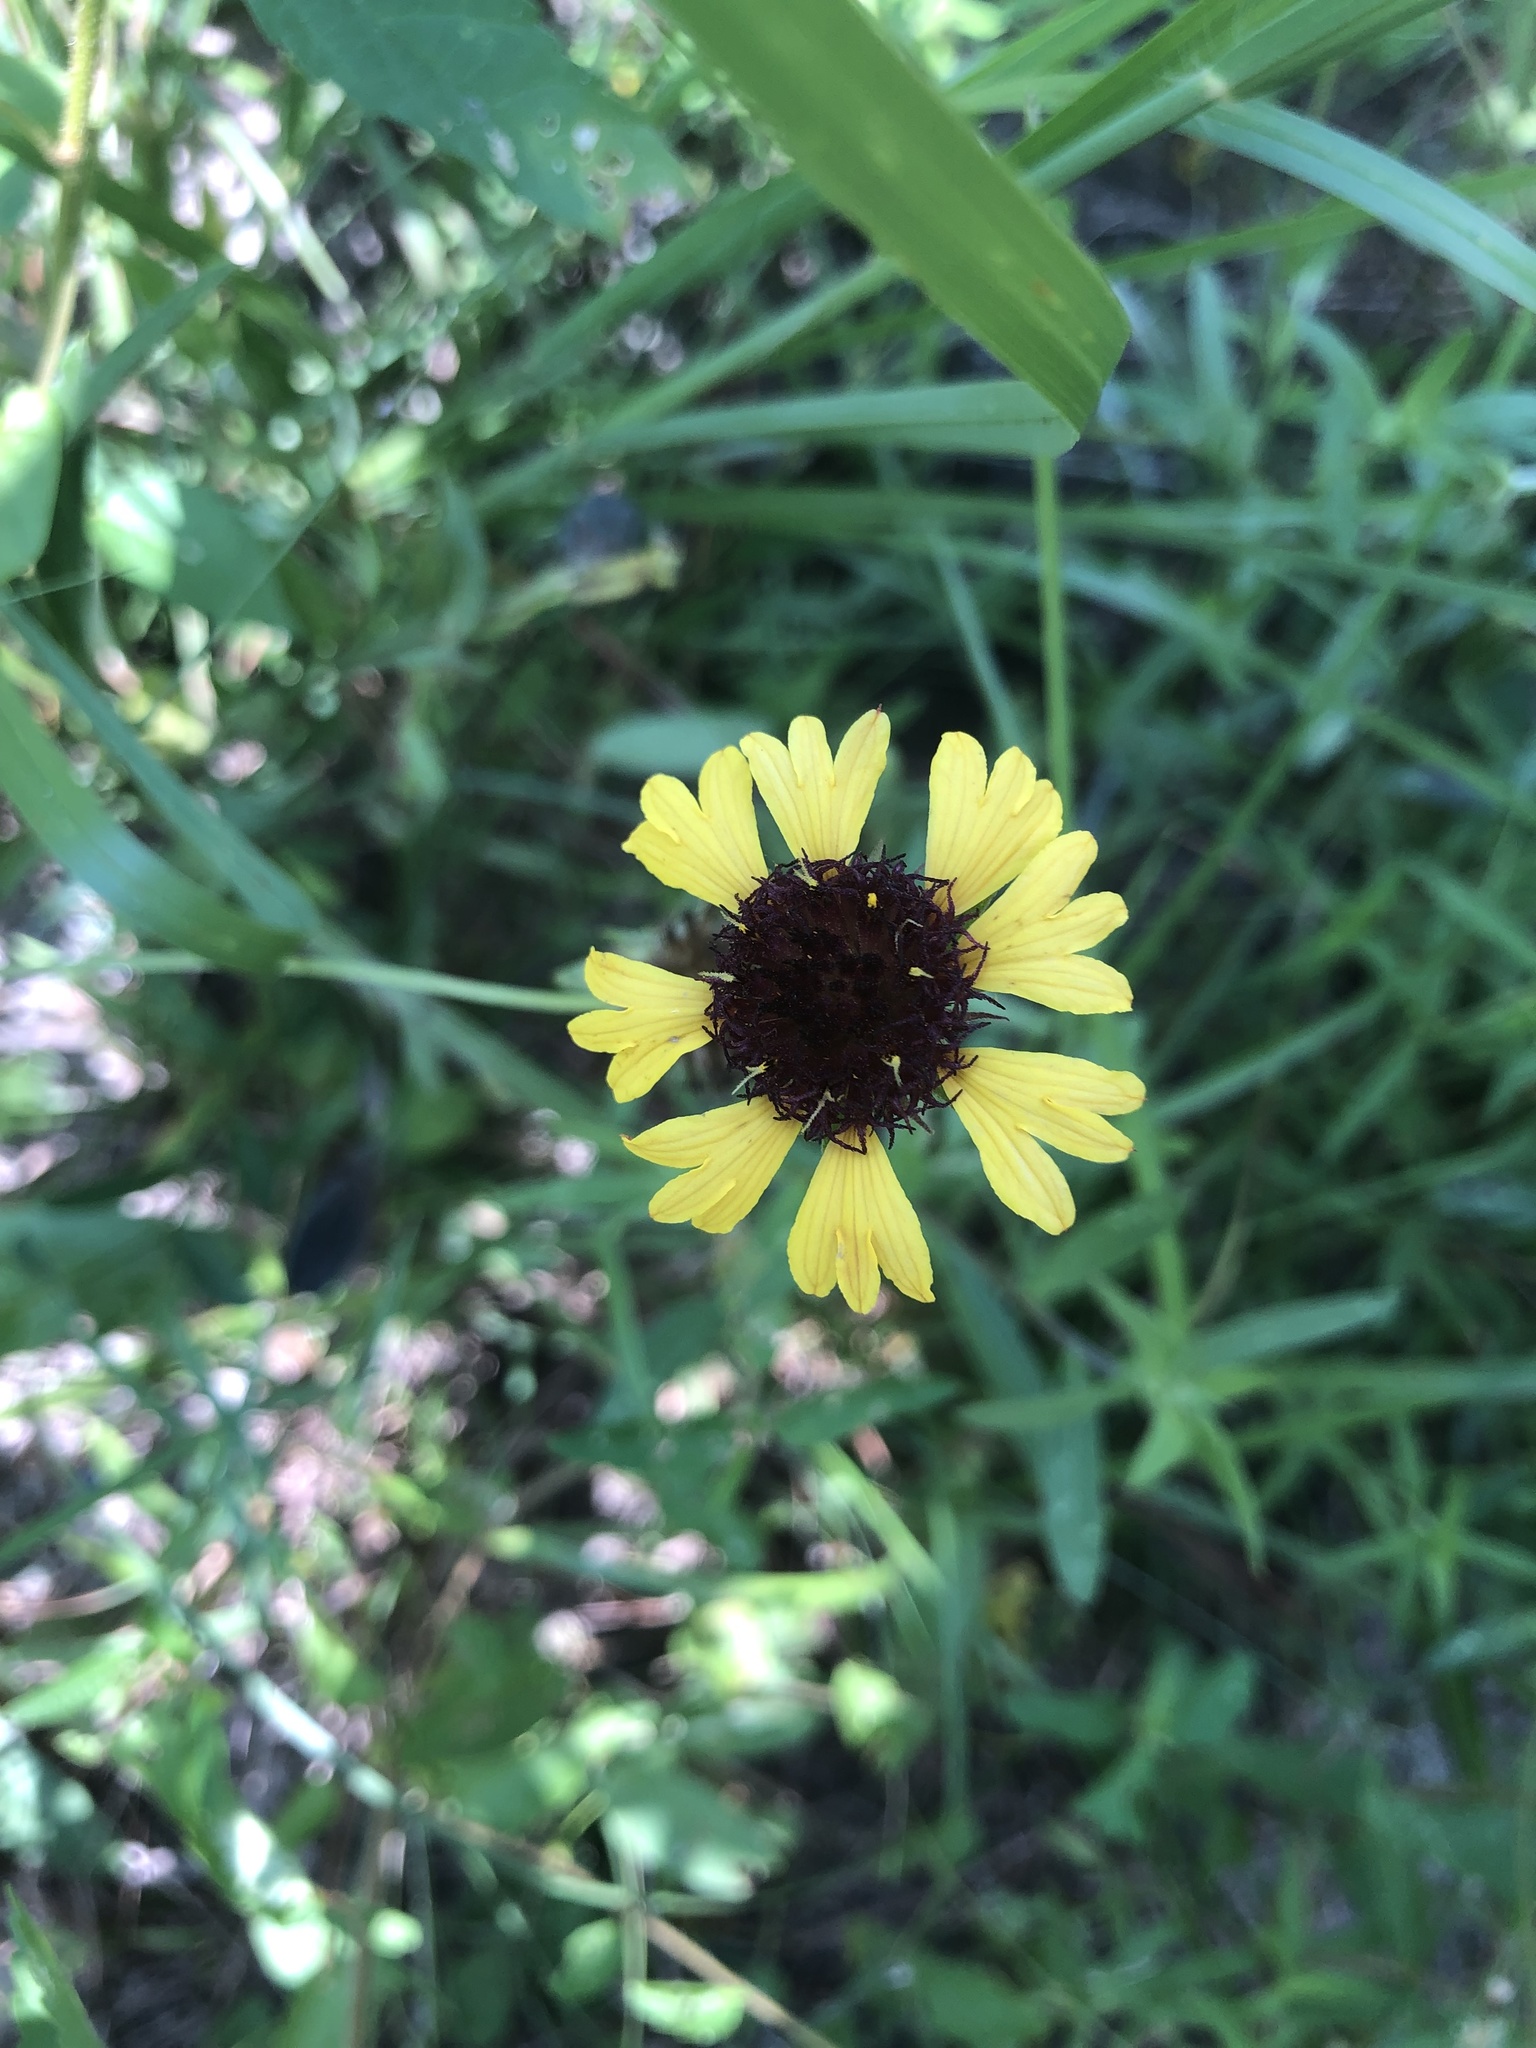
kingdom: Plantae
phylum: Tracheophyta
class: Magnoliopsida
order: Asterales
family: Asteraceae
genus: Gaillardia
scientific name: Gaillardia aestivalis
